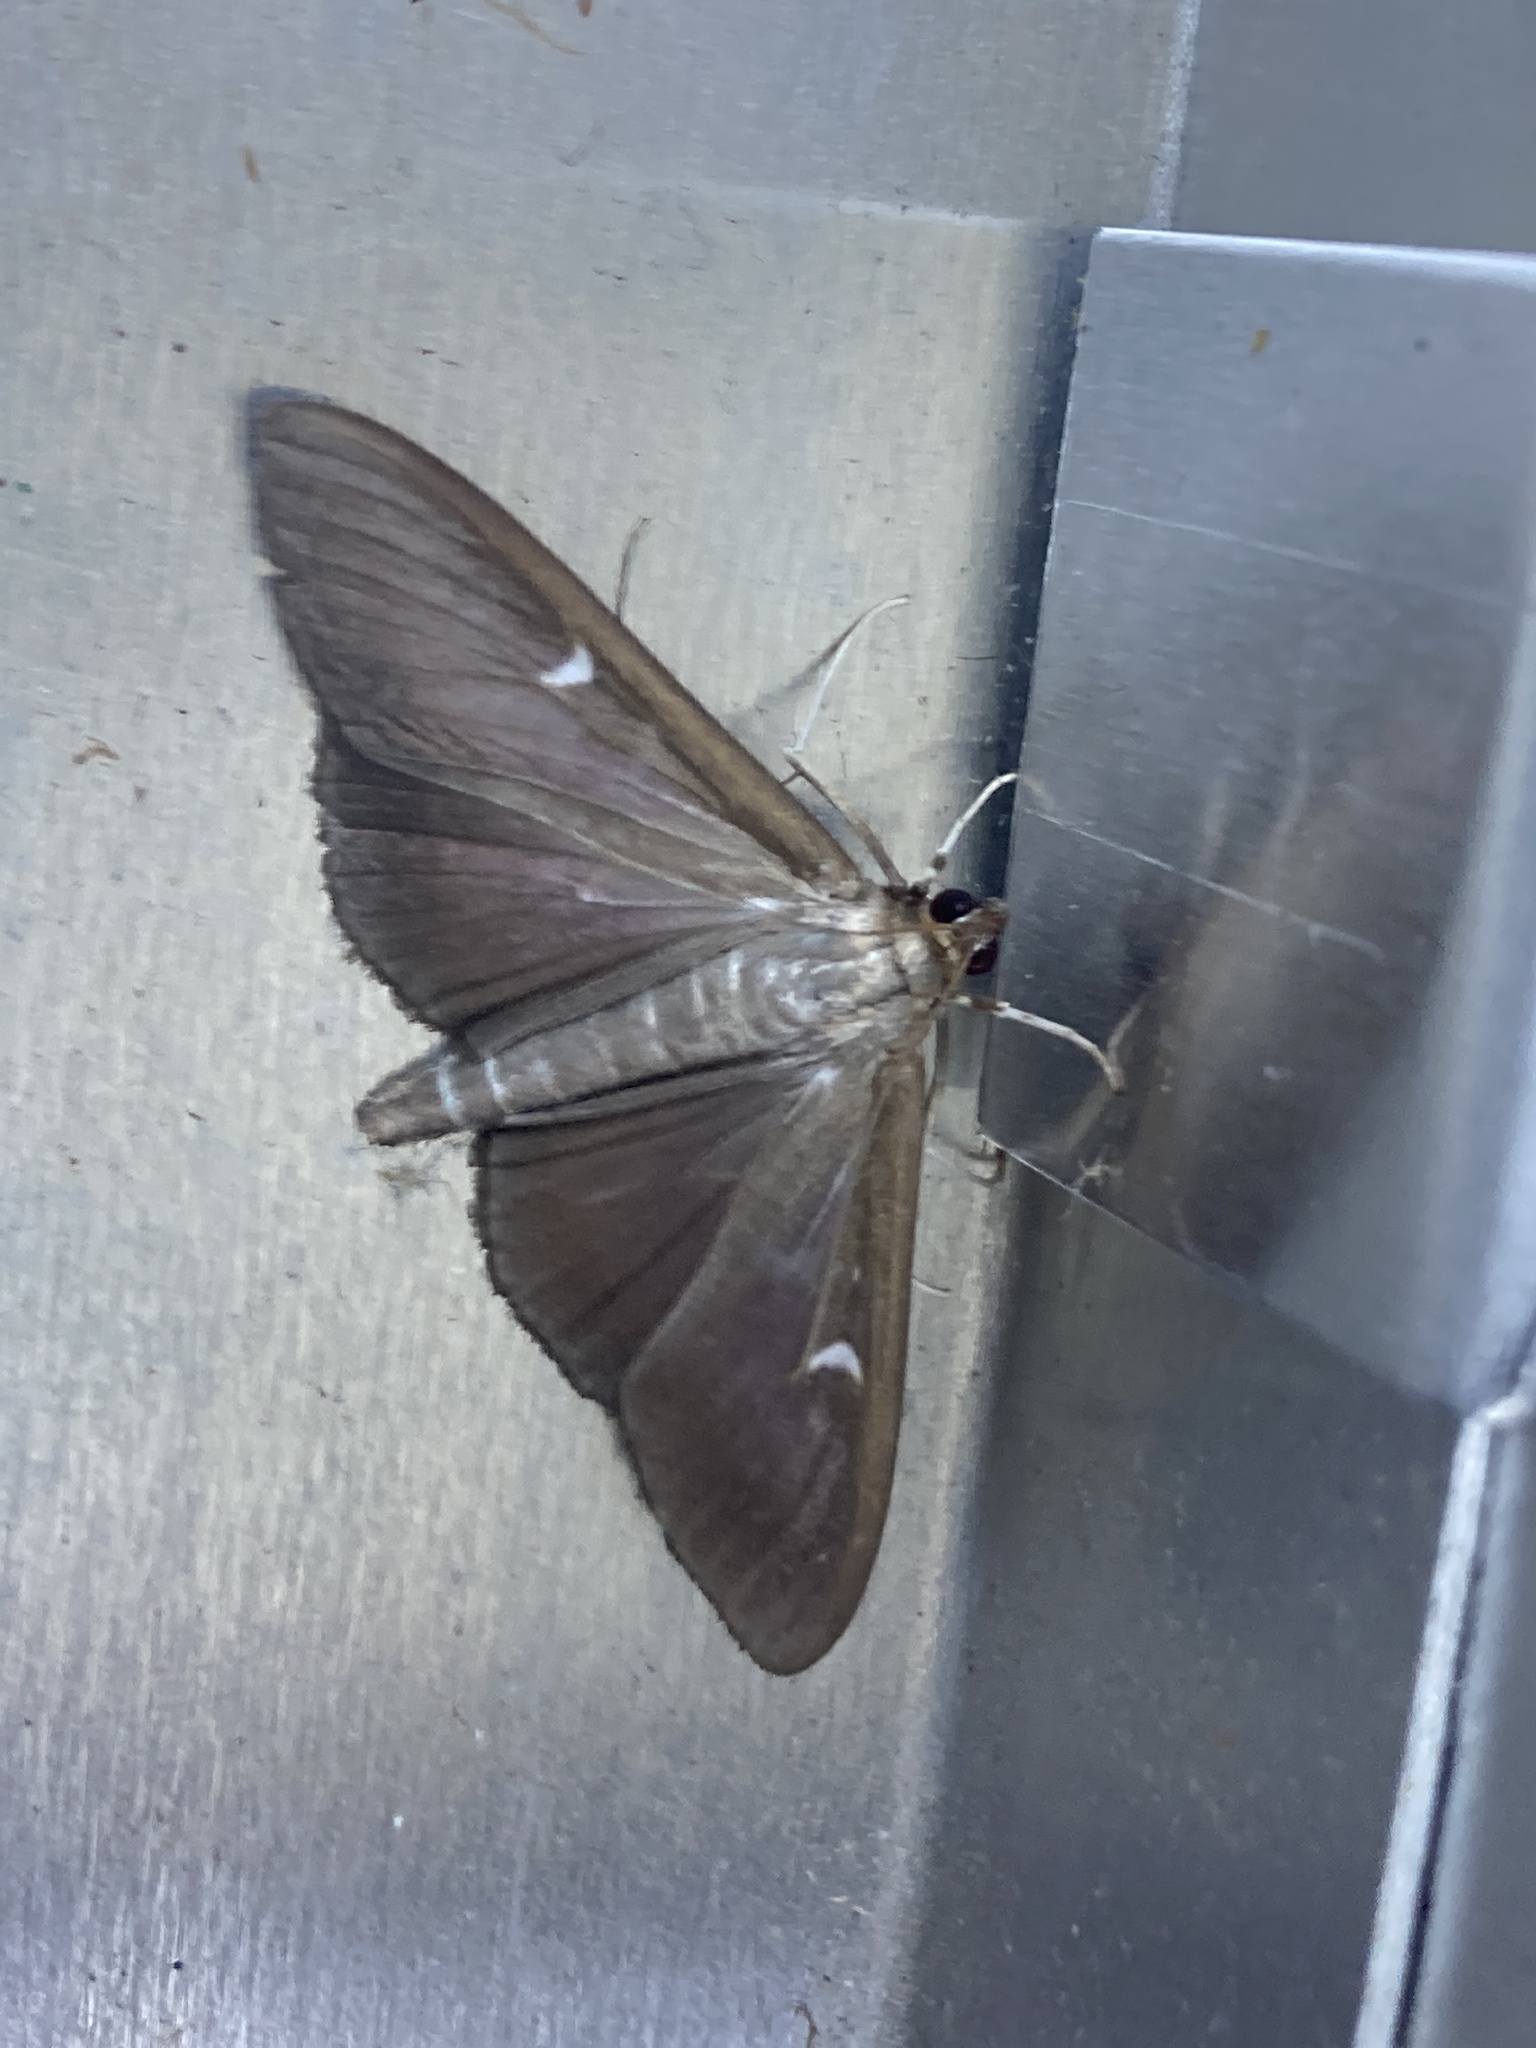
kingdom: Animalia
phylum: Arthropoda
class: Insecta
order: Lepidoptera
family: Crambidae
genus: Cydalima
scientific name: Cydalima perspectalis
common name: Box tree moth
